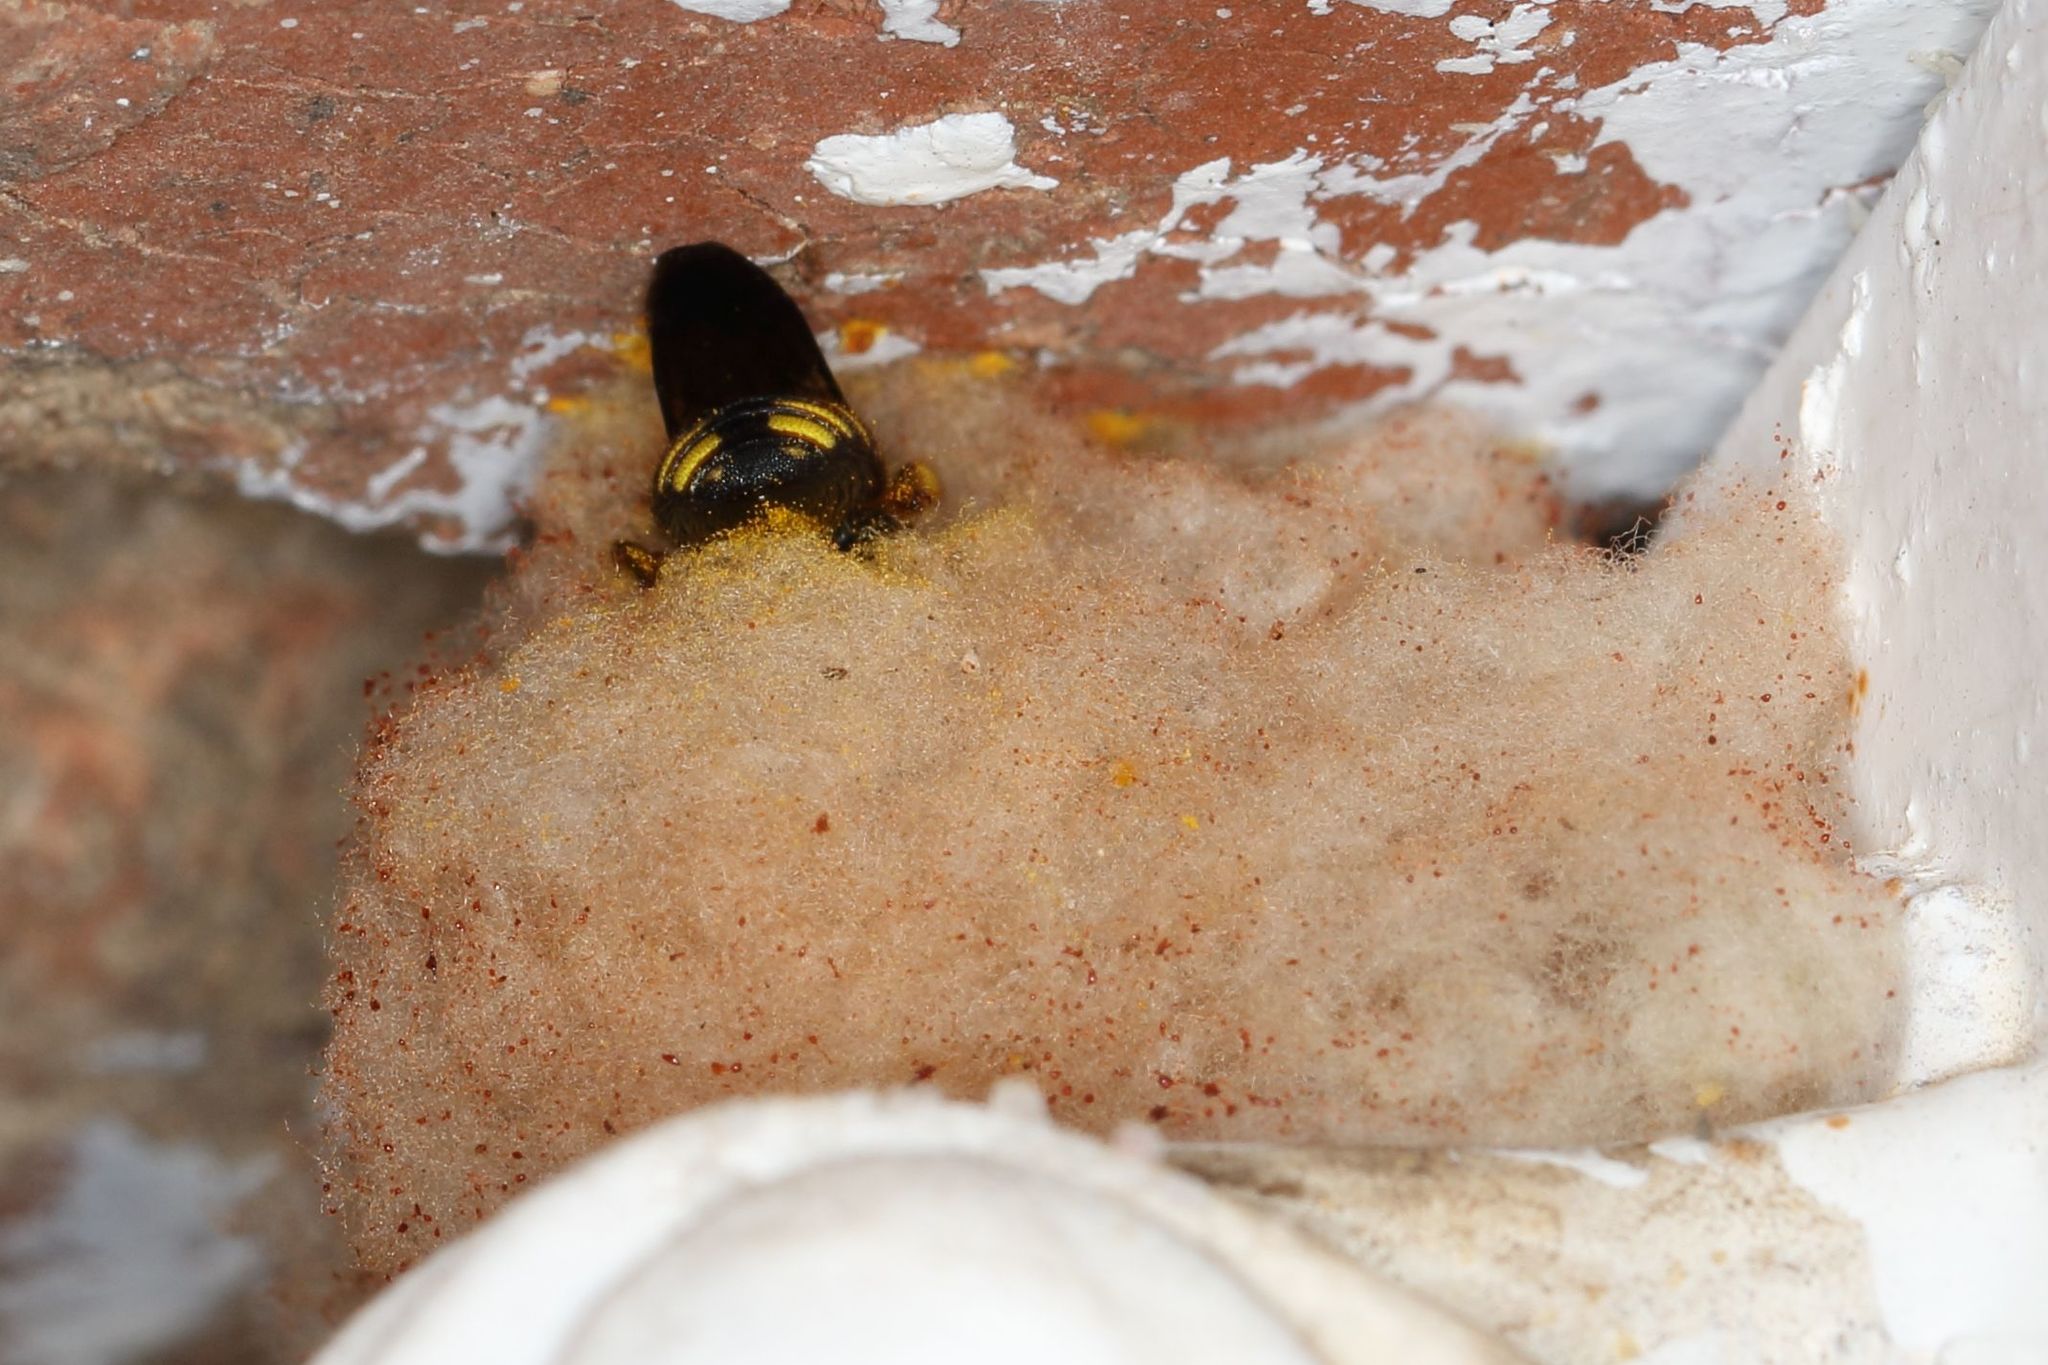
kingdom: Animalia
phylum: Arthropoda
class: Insecta
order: Hymenoptera
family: Megachilidae
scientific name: Megachilidae
